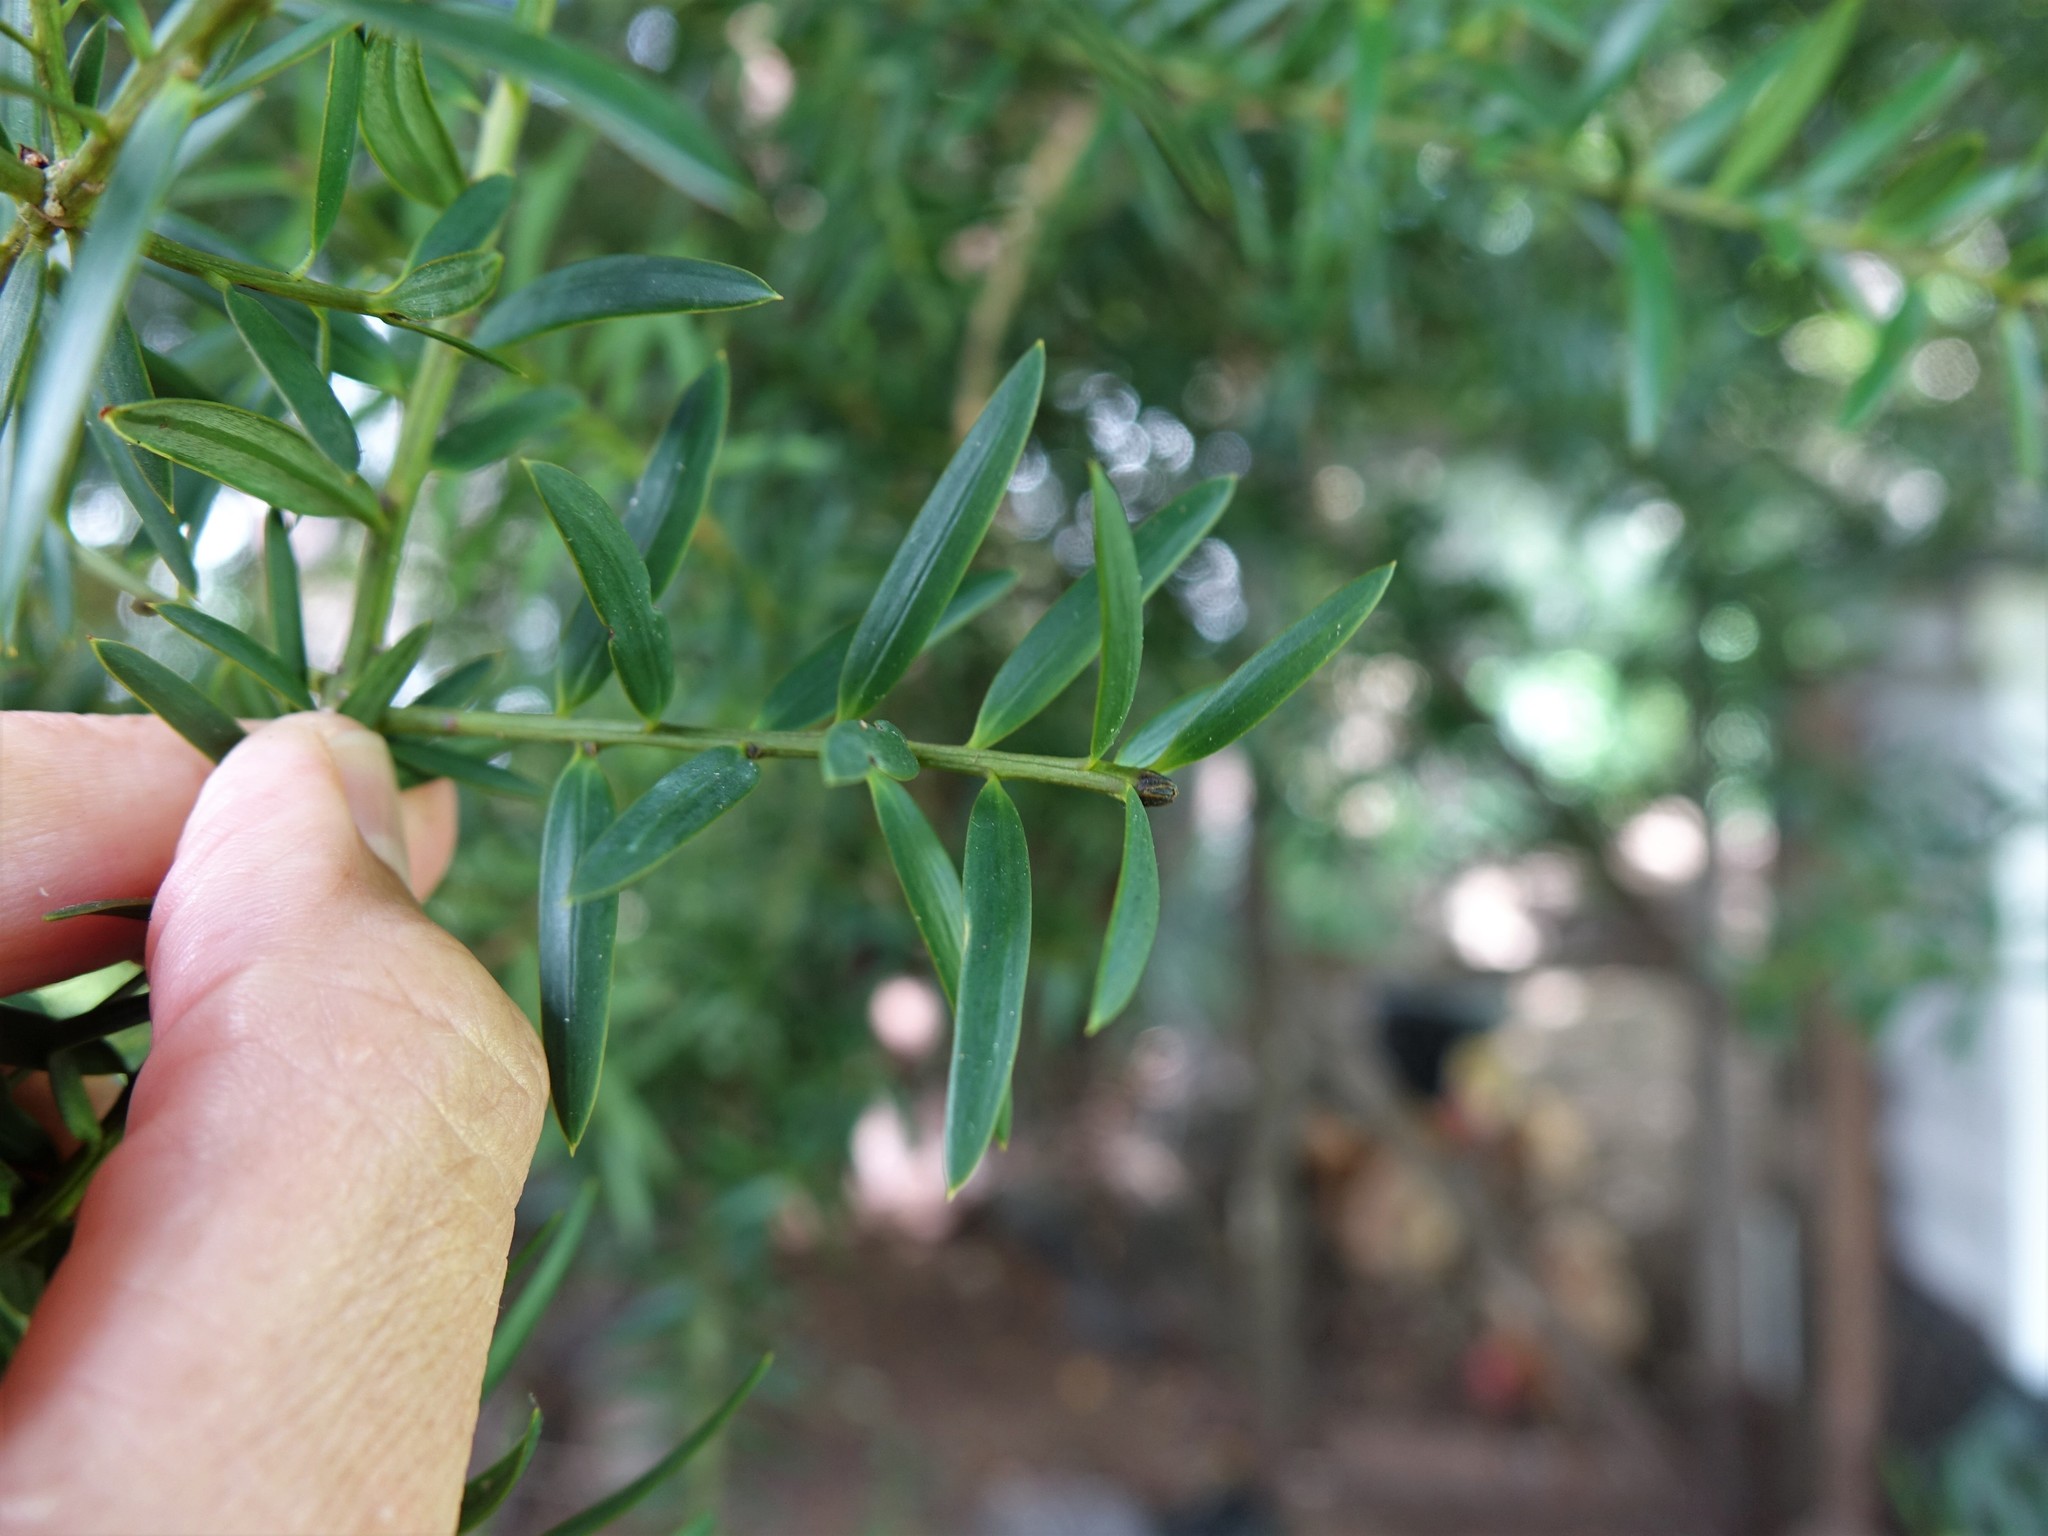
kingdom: Plantae
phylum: Tracheophyta
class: Pinopsida
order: Pinales
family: Podocarpaceae
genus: Podocarpus
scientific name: Podocarpus totara
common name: Totara
